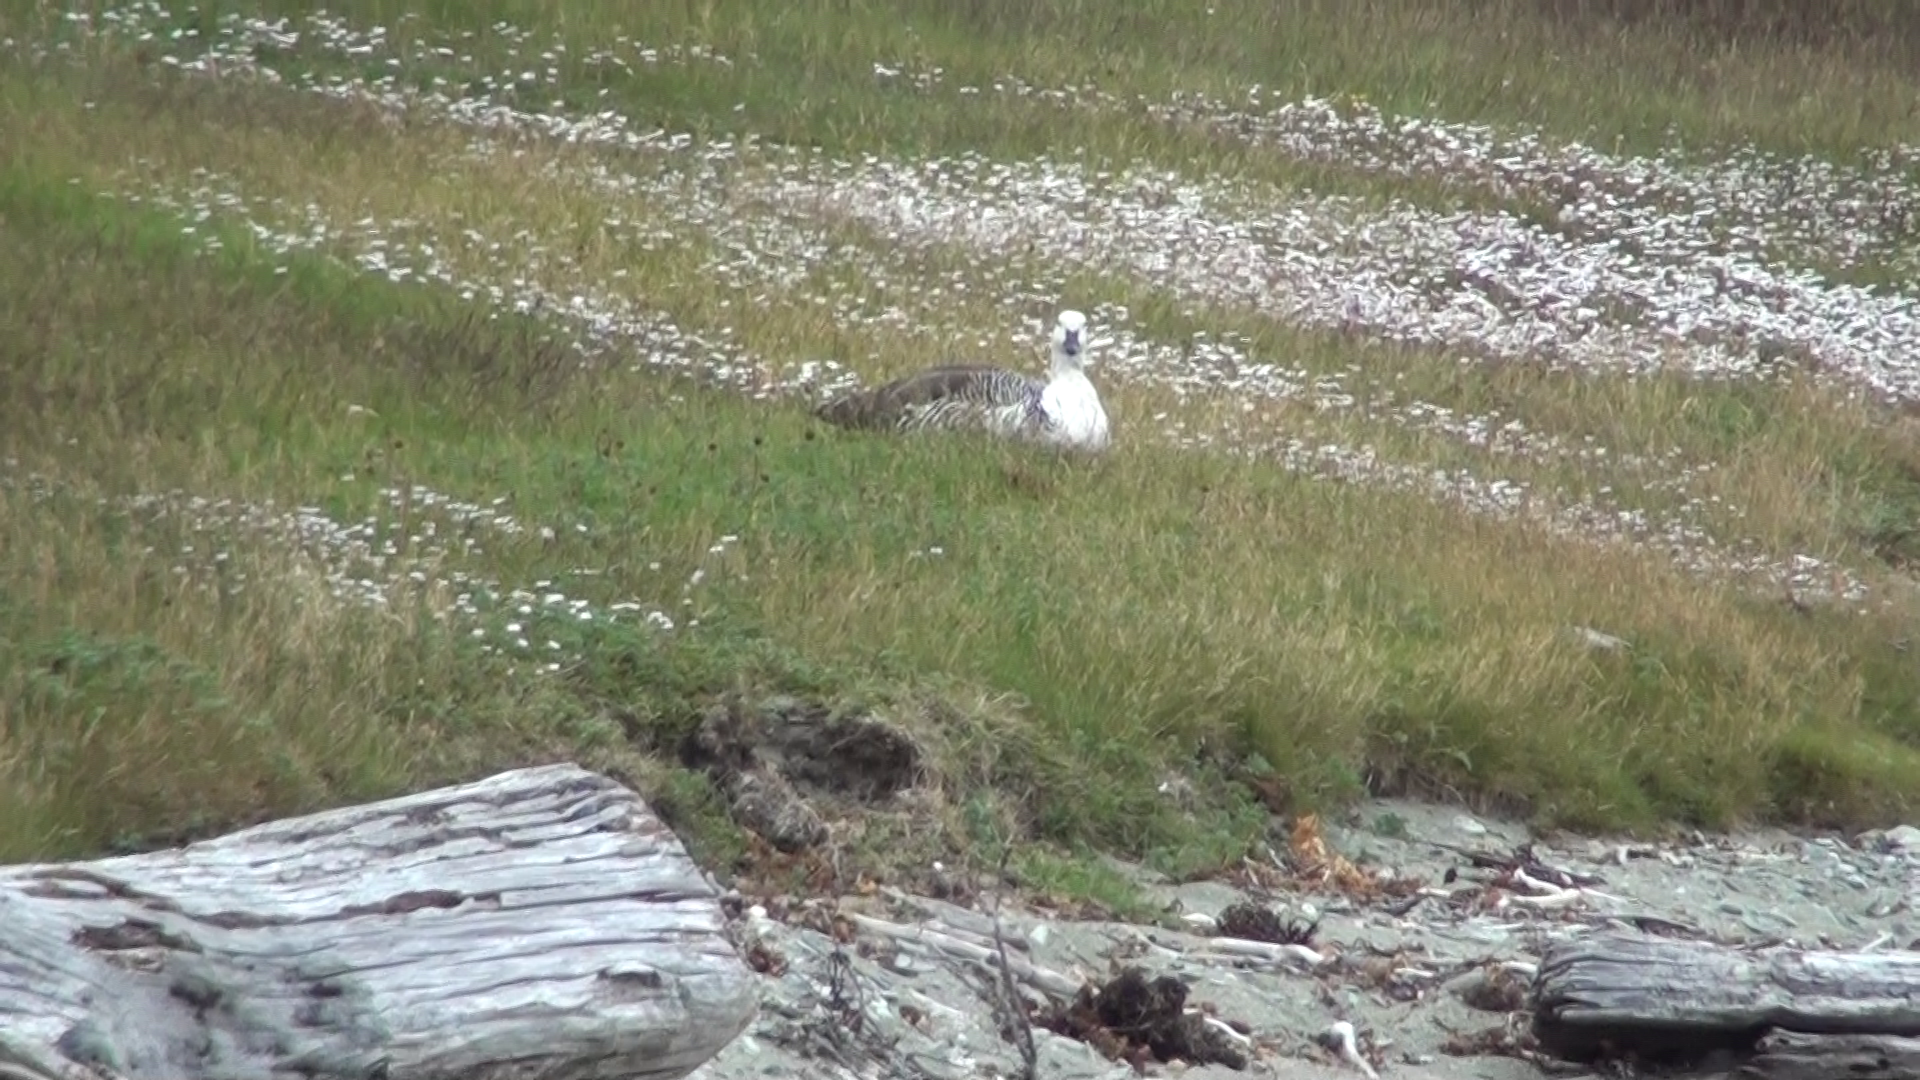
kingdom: Animalia
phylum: Chordata
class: Aves
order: Anseriformes
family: Anatidae
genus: Chloephaga
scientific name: Chloephaga picta
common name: Upland goose
